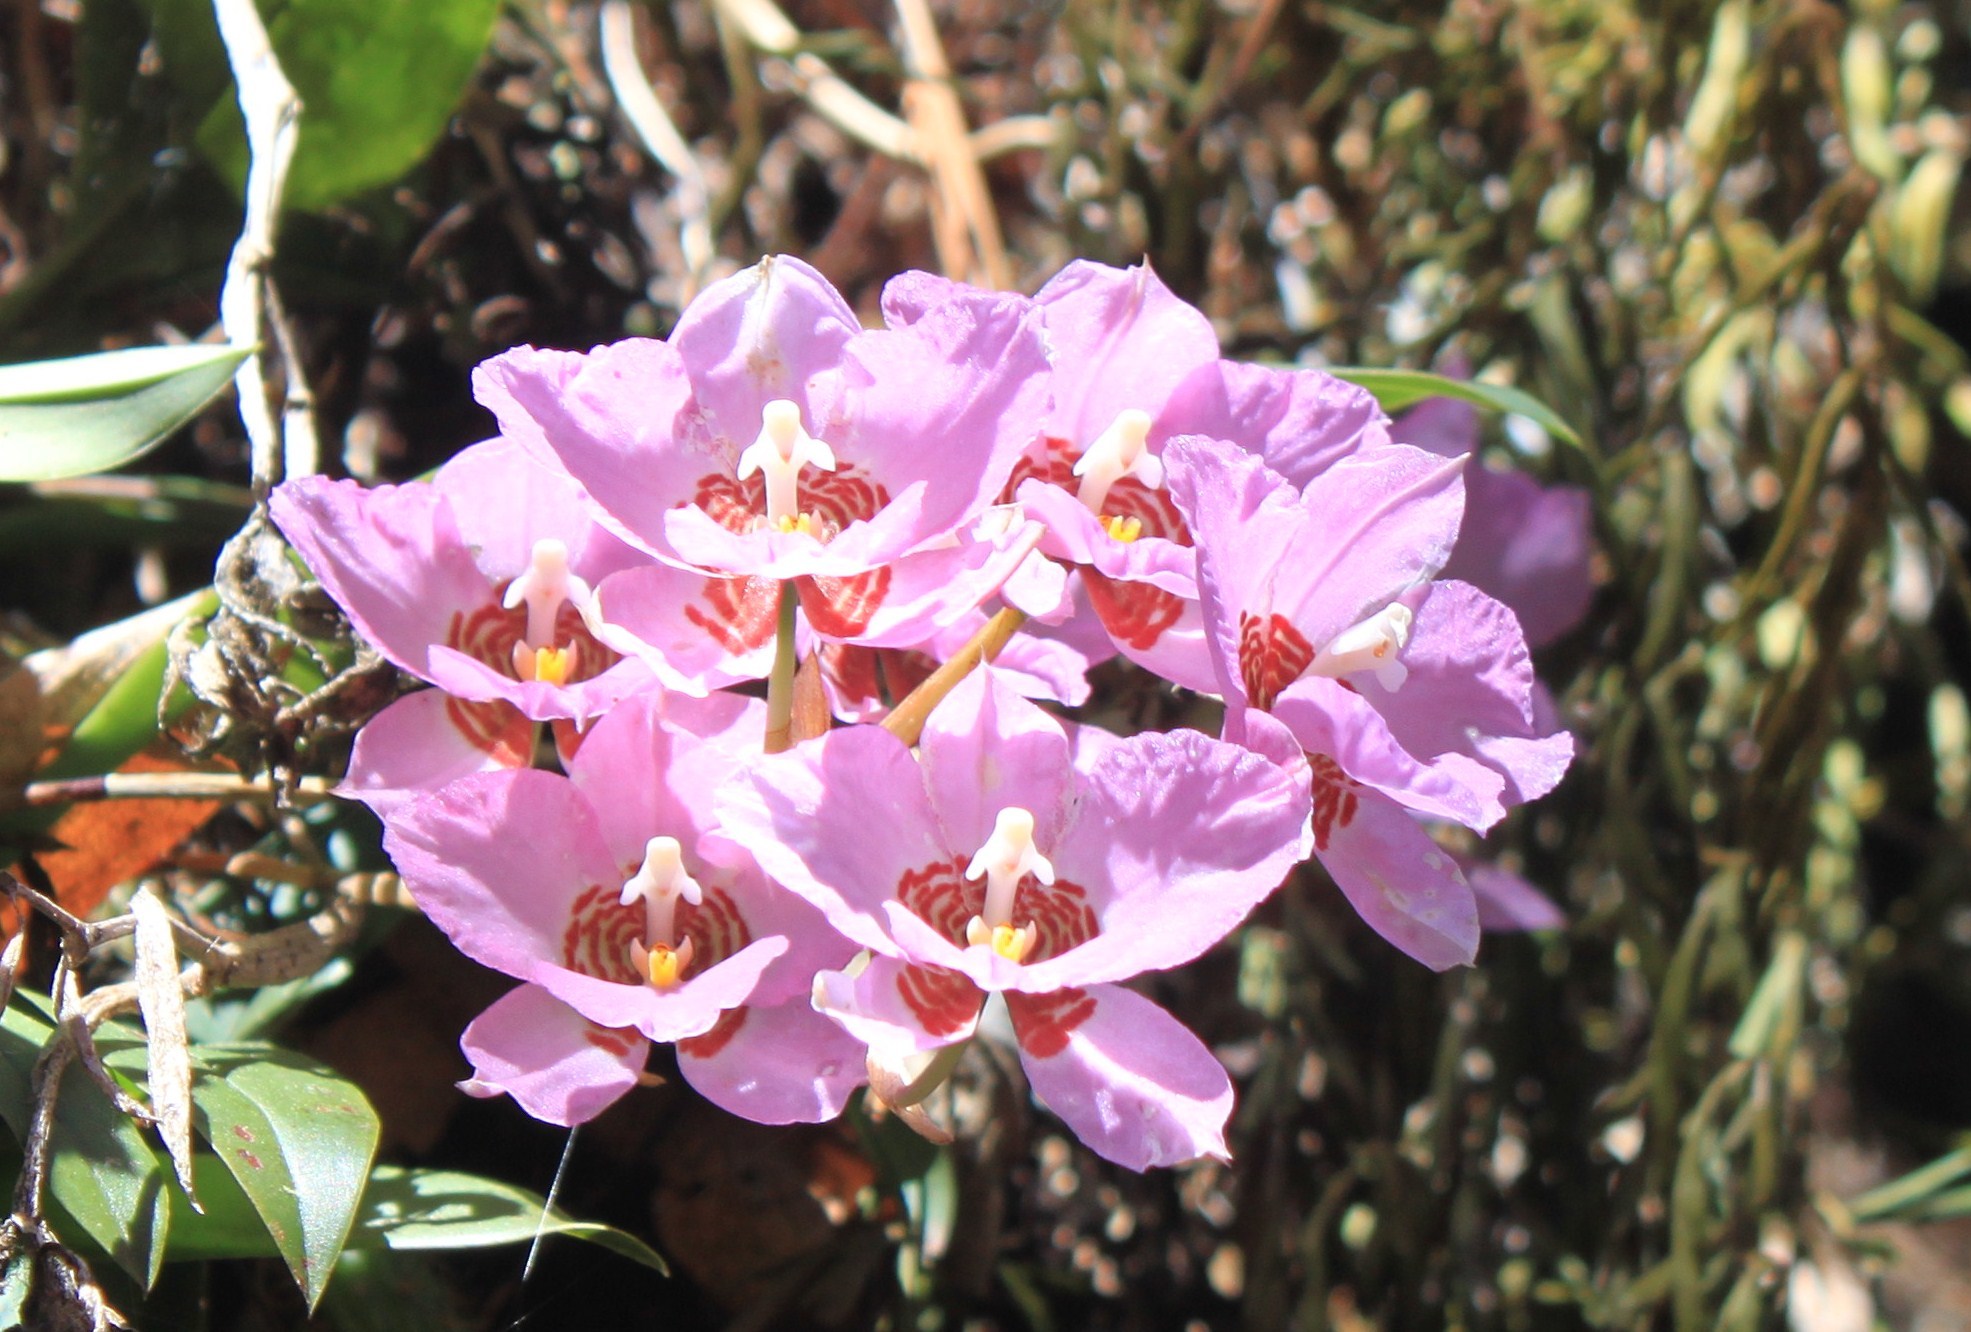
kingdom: Plantae
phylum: Tracheophyta
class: Liliopsida
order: Asparagales
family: Orchidaceae
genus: Rhynchostele
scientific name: Rhynchostele cervantesii
